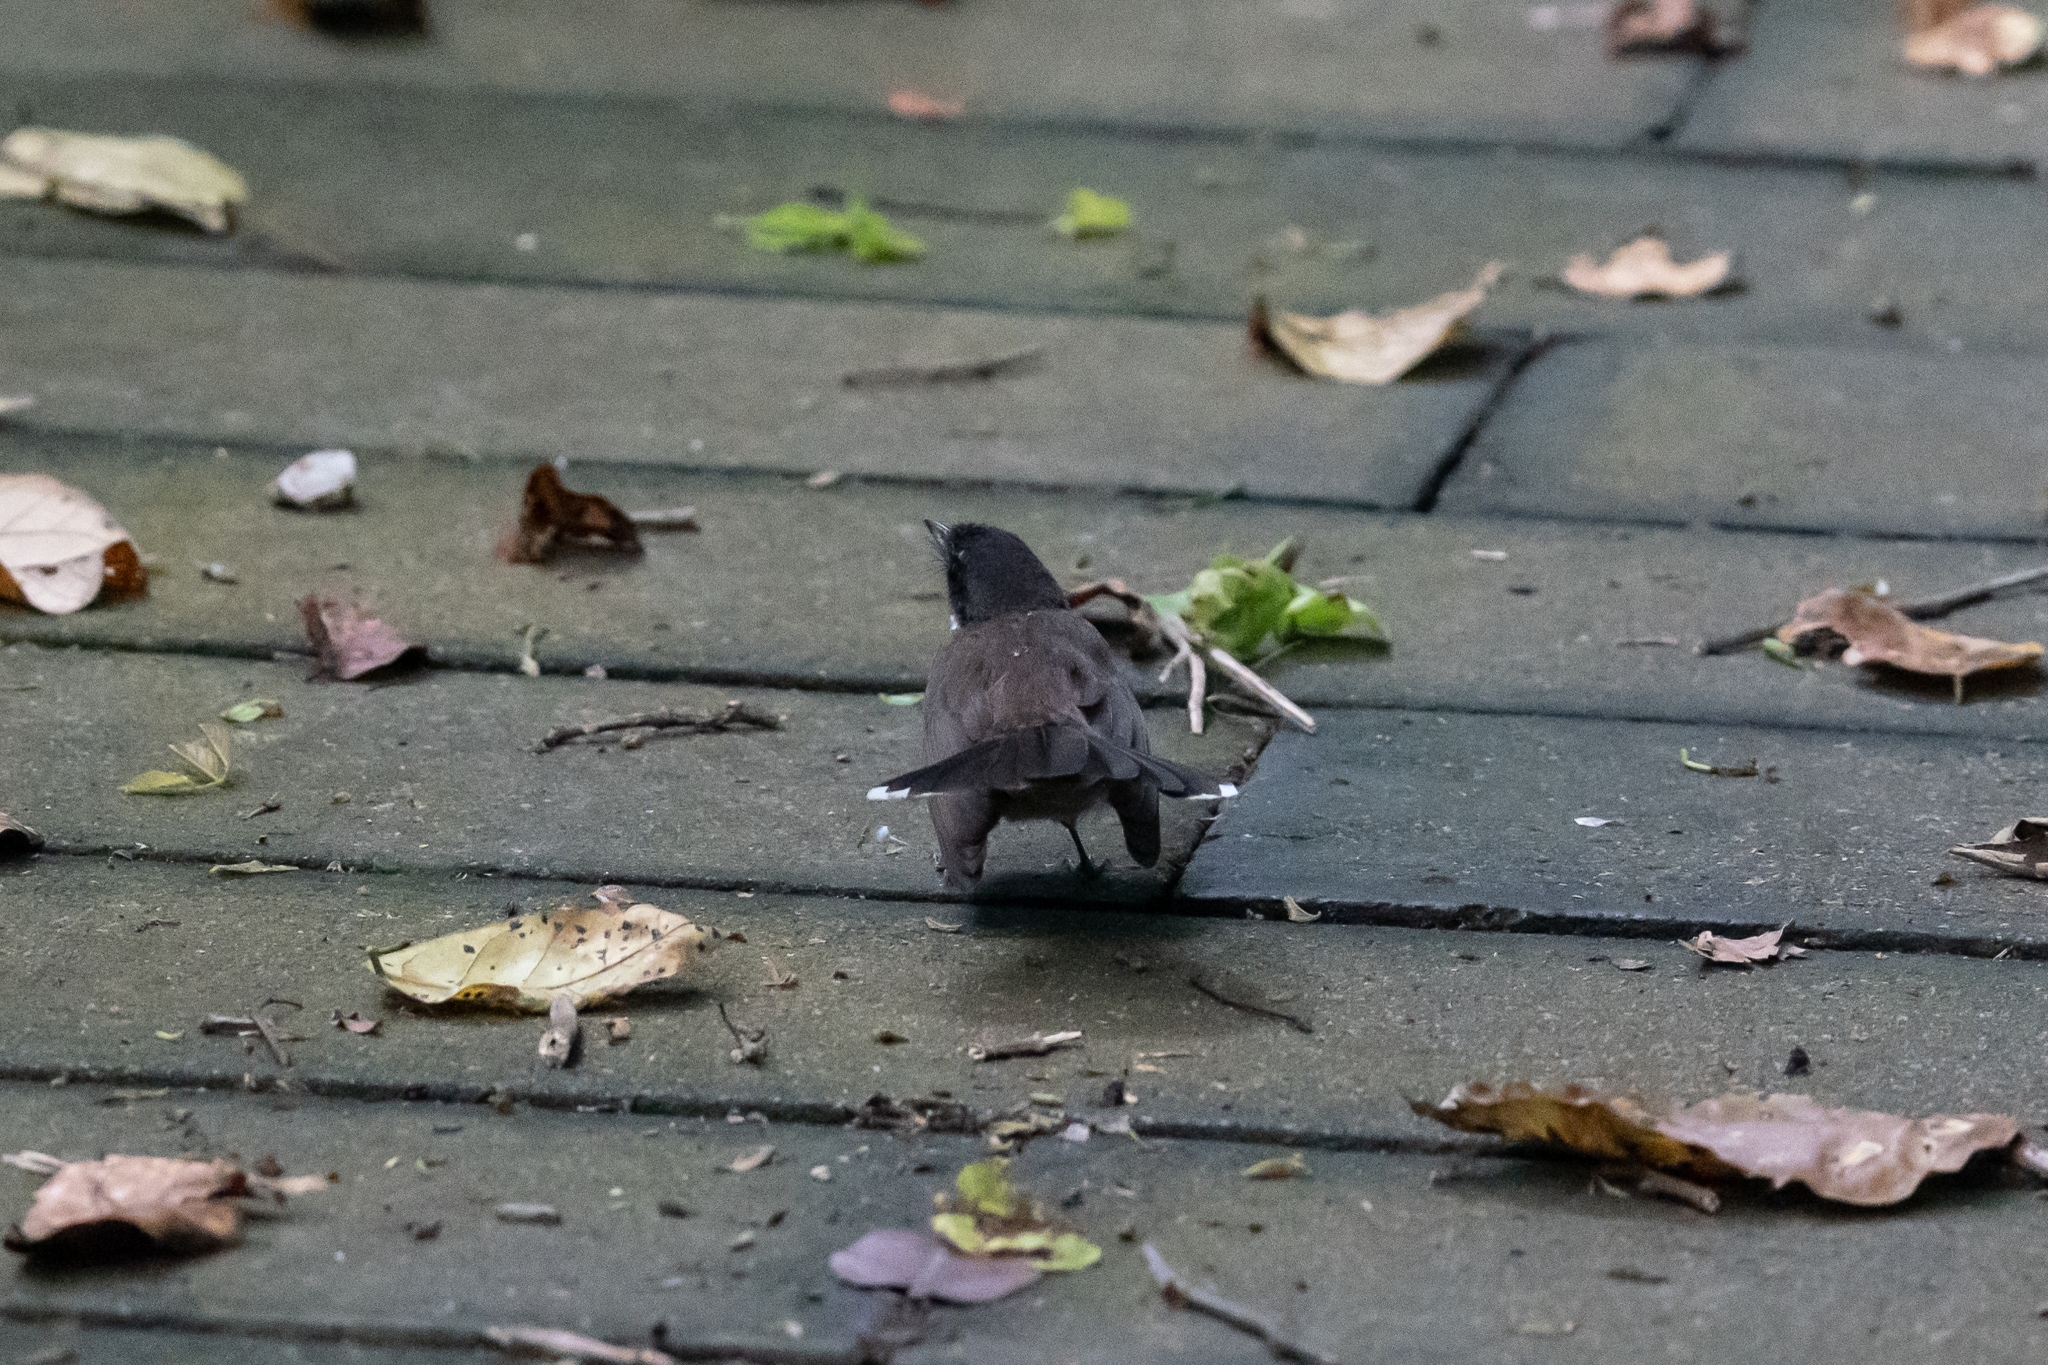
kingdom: Animalia
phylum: Chordata
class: Aves
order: Passeriformes
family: Rhipiduridae
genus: Rhipidura
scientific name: Rhipidura javanica
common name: Pied fantail
